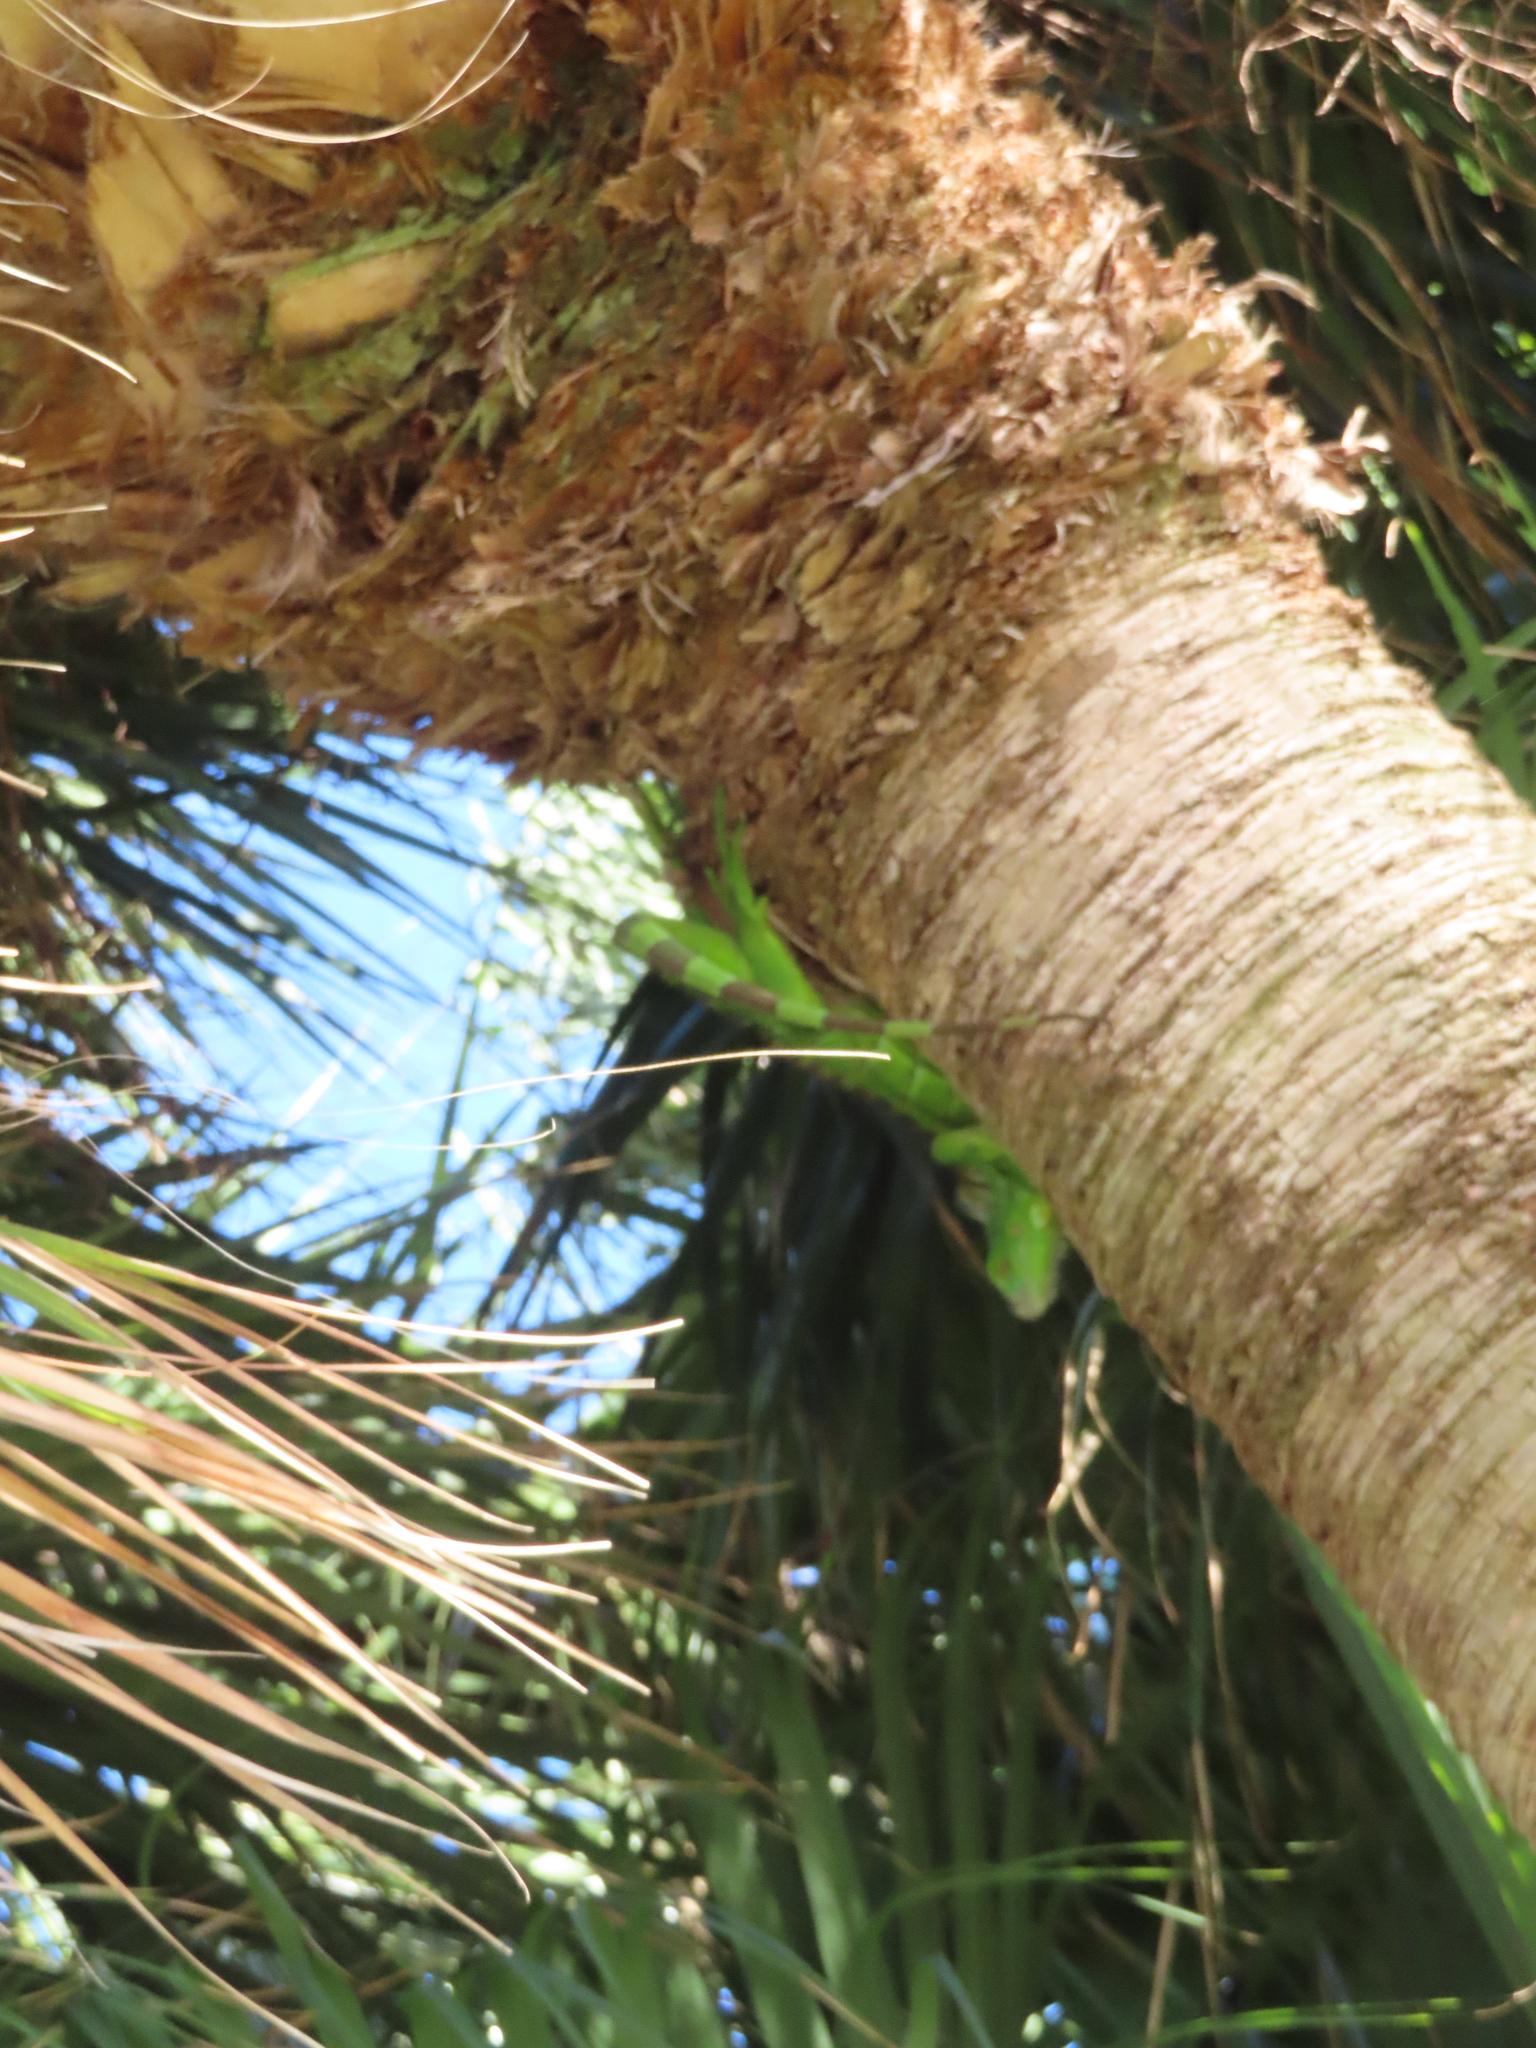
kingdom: Animalia
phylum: Chordata
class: Squamata
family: Iguanidae
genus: Iguana
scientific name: Iguana iguana
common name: Green iguana
